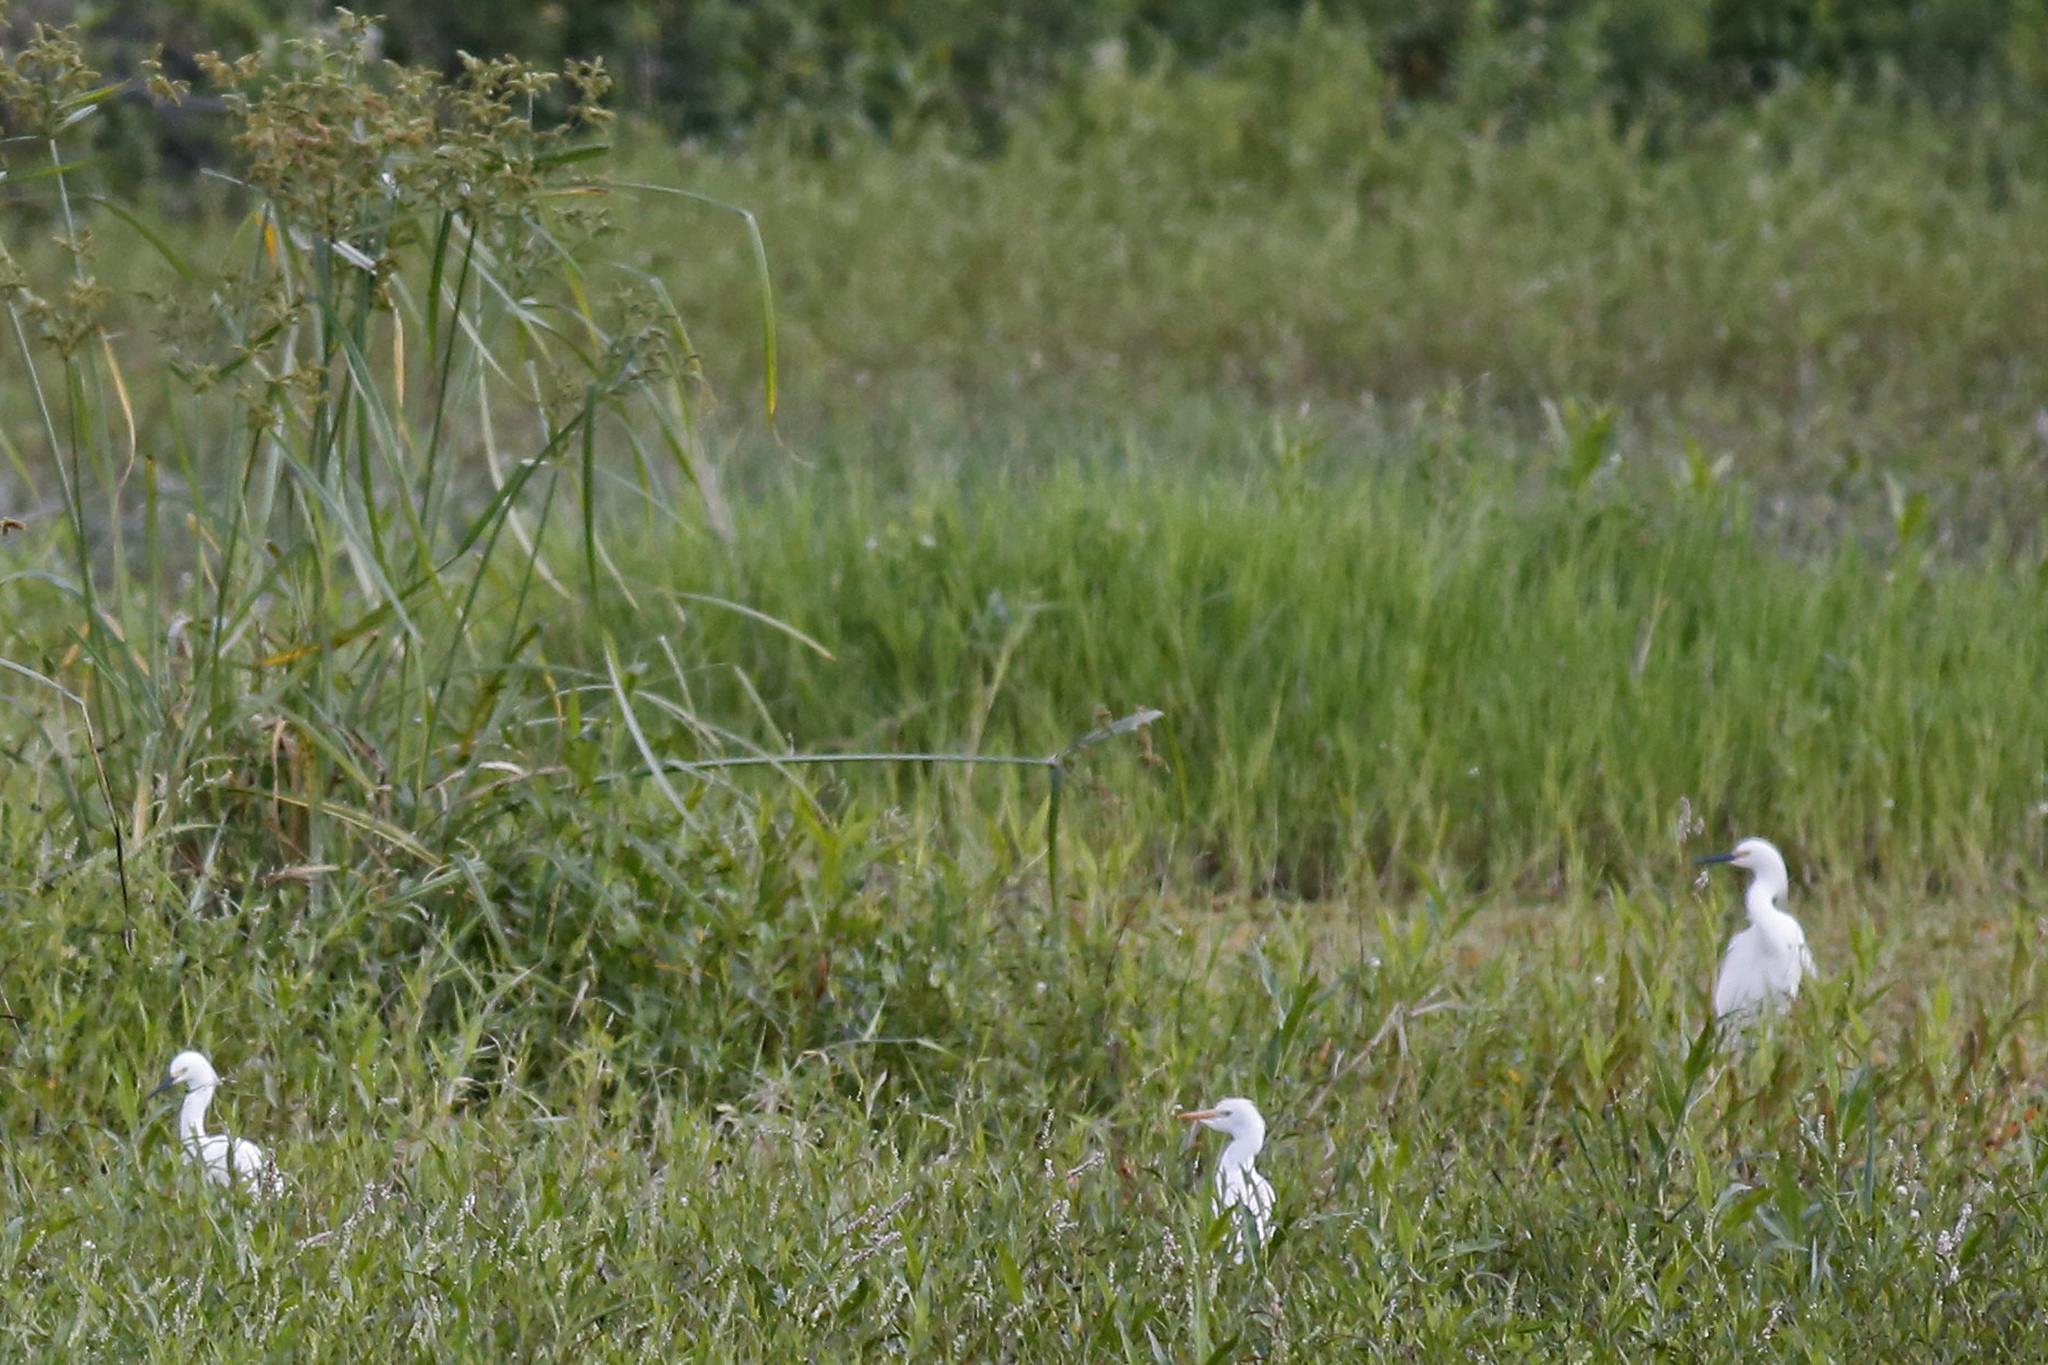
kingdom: Animalia
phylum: Chordata
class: Aves
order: Pelecaniformes
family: Ardeidae
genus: Bubulcus
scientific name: Bubulcus ibis
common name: Cattle egret
